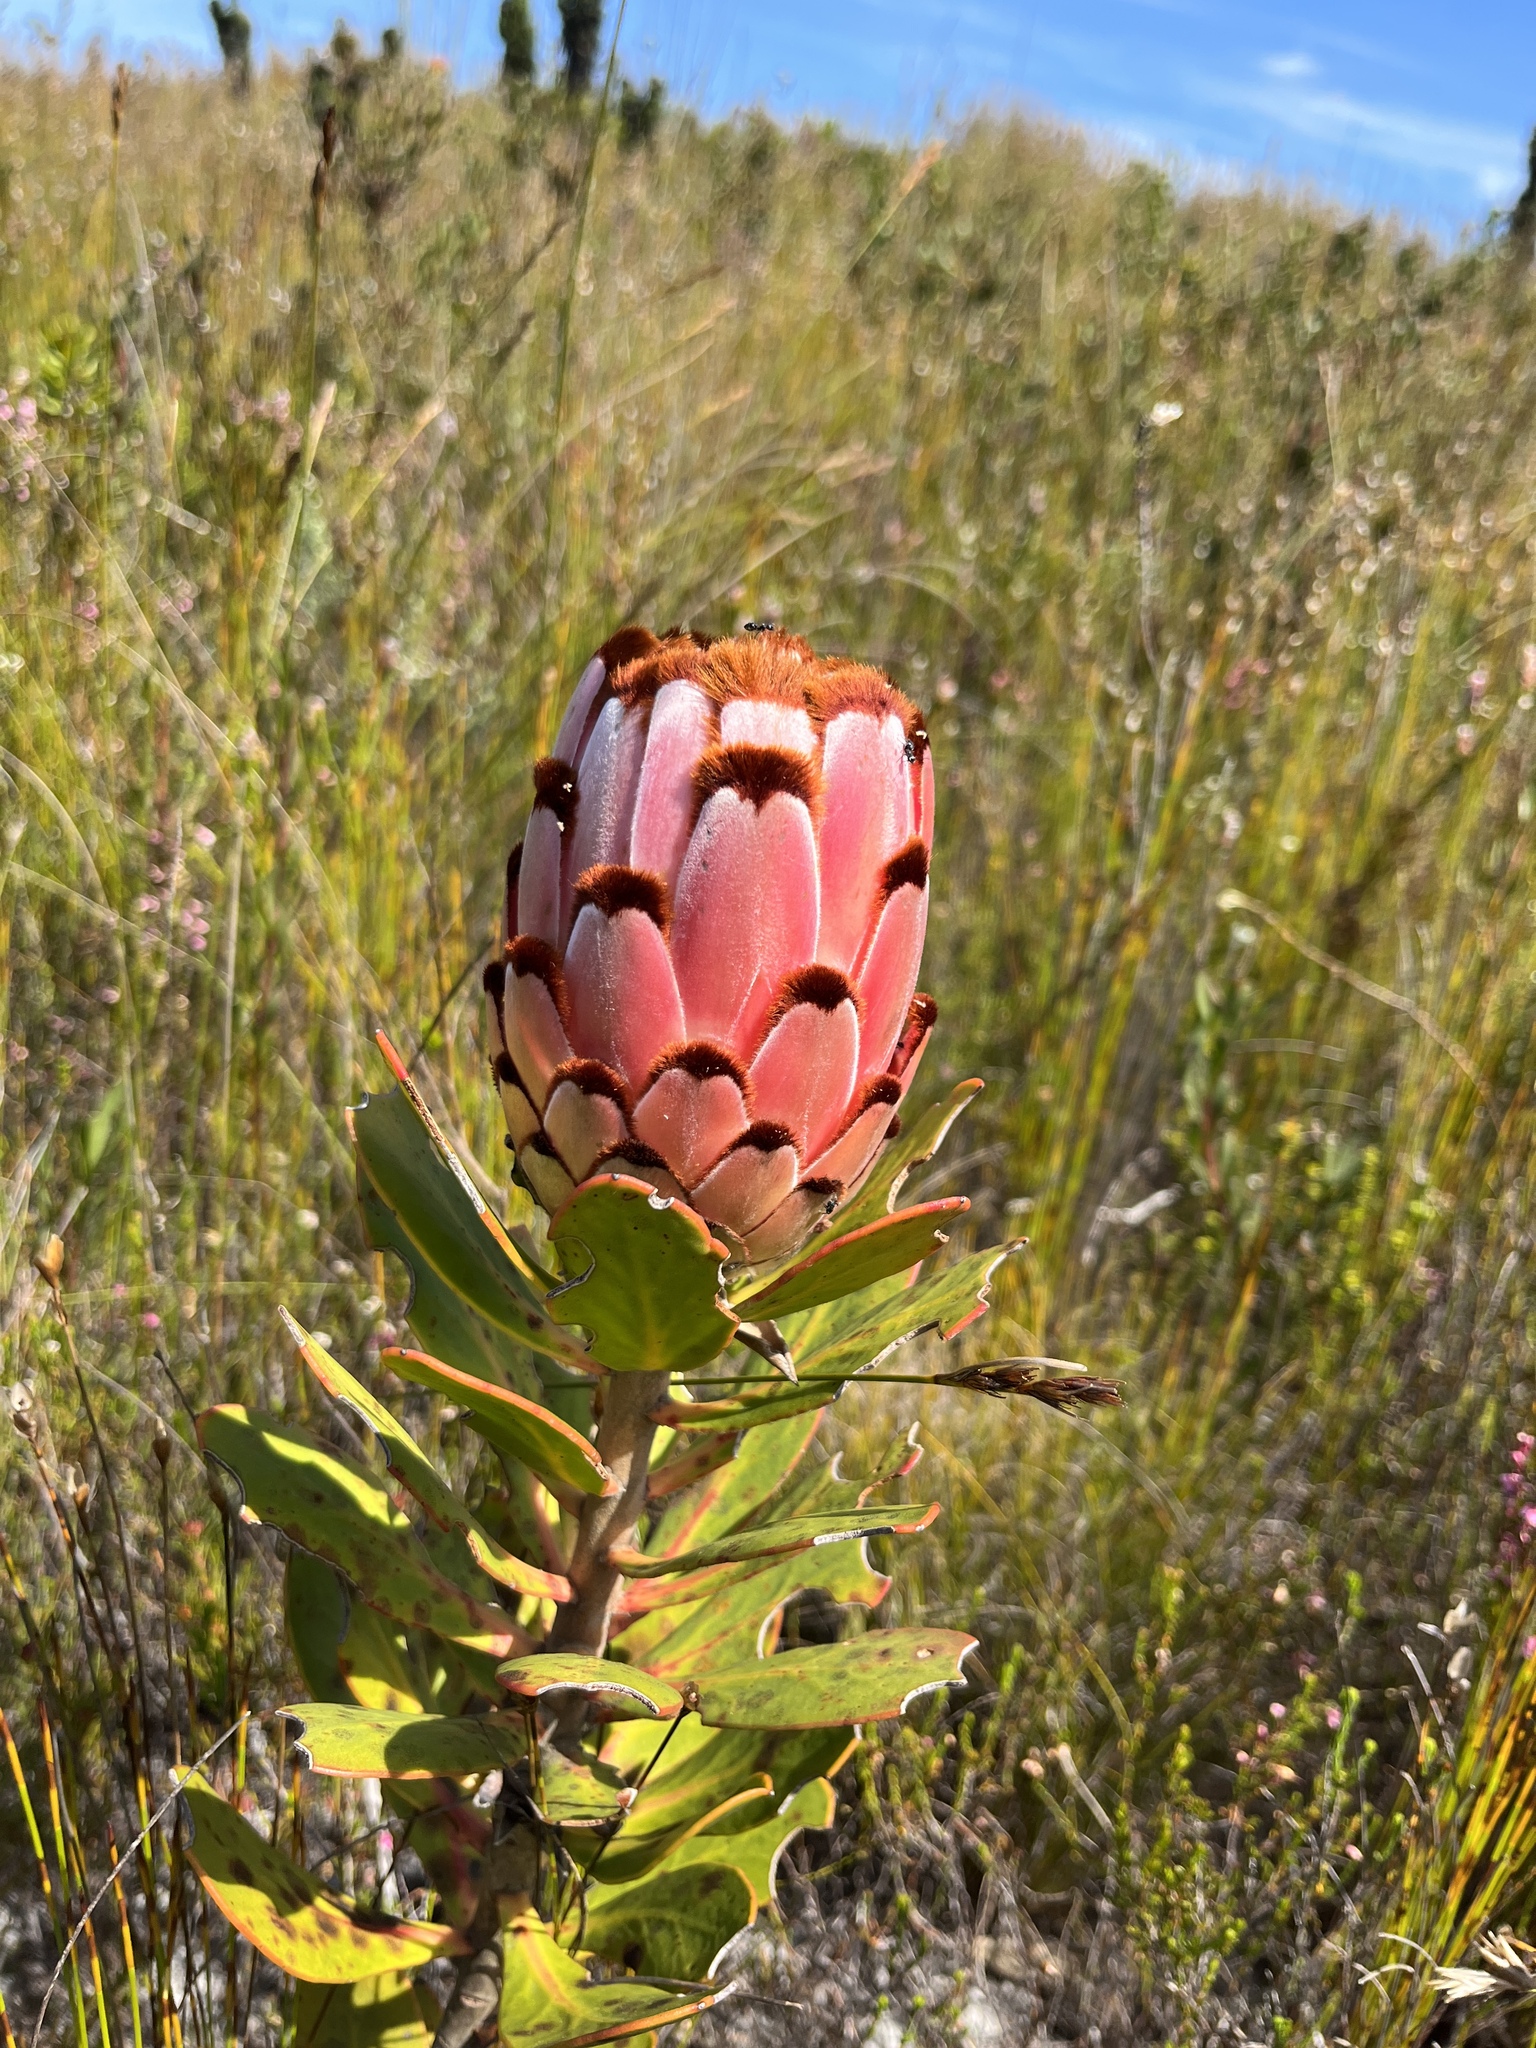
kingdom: Plantae
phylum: Tracheophyta
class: Magnoliopsida
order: Proteales
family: Proteaceae
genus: Protea
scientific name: Protea speciosa
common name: Brown-beard sugarbush
